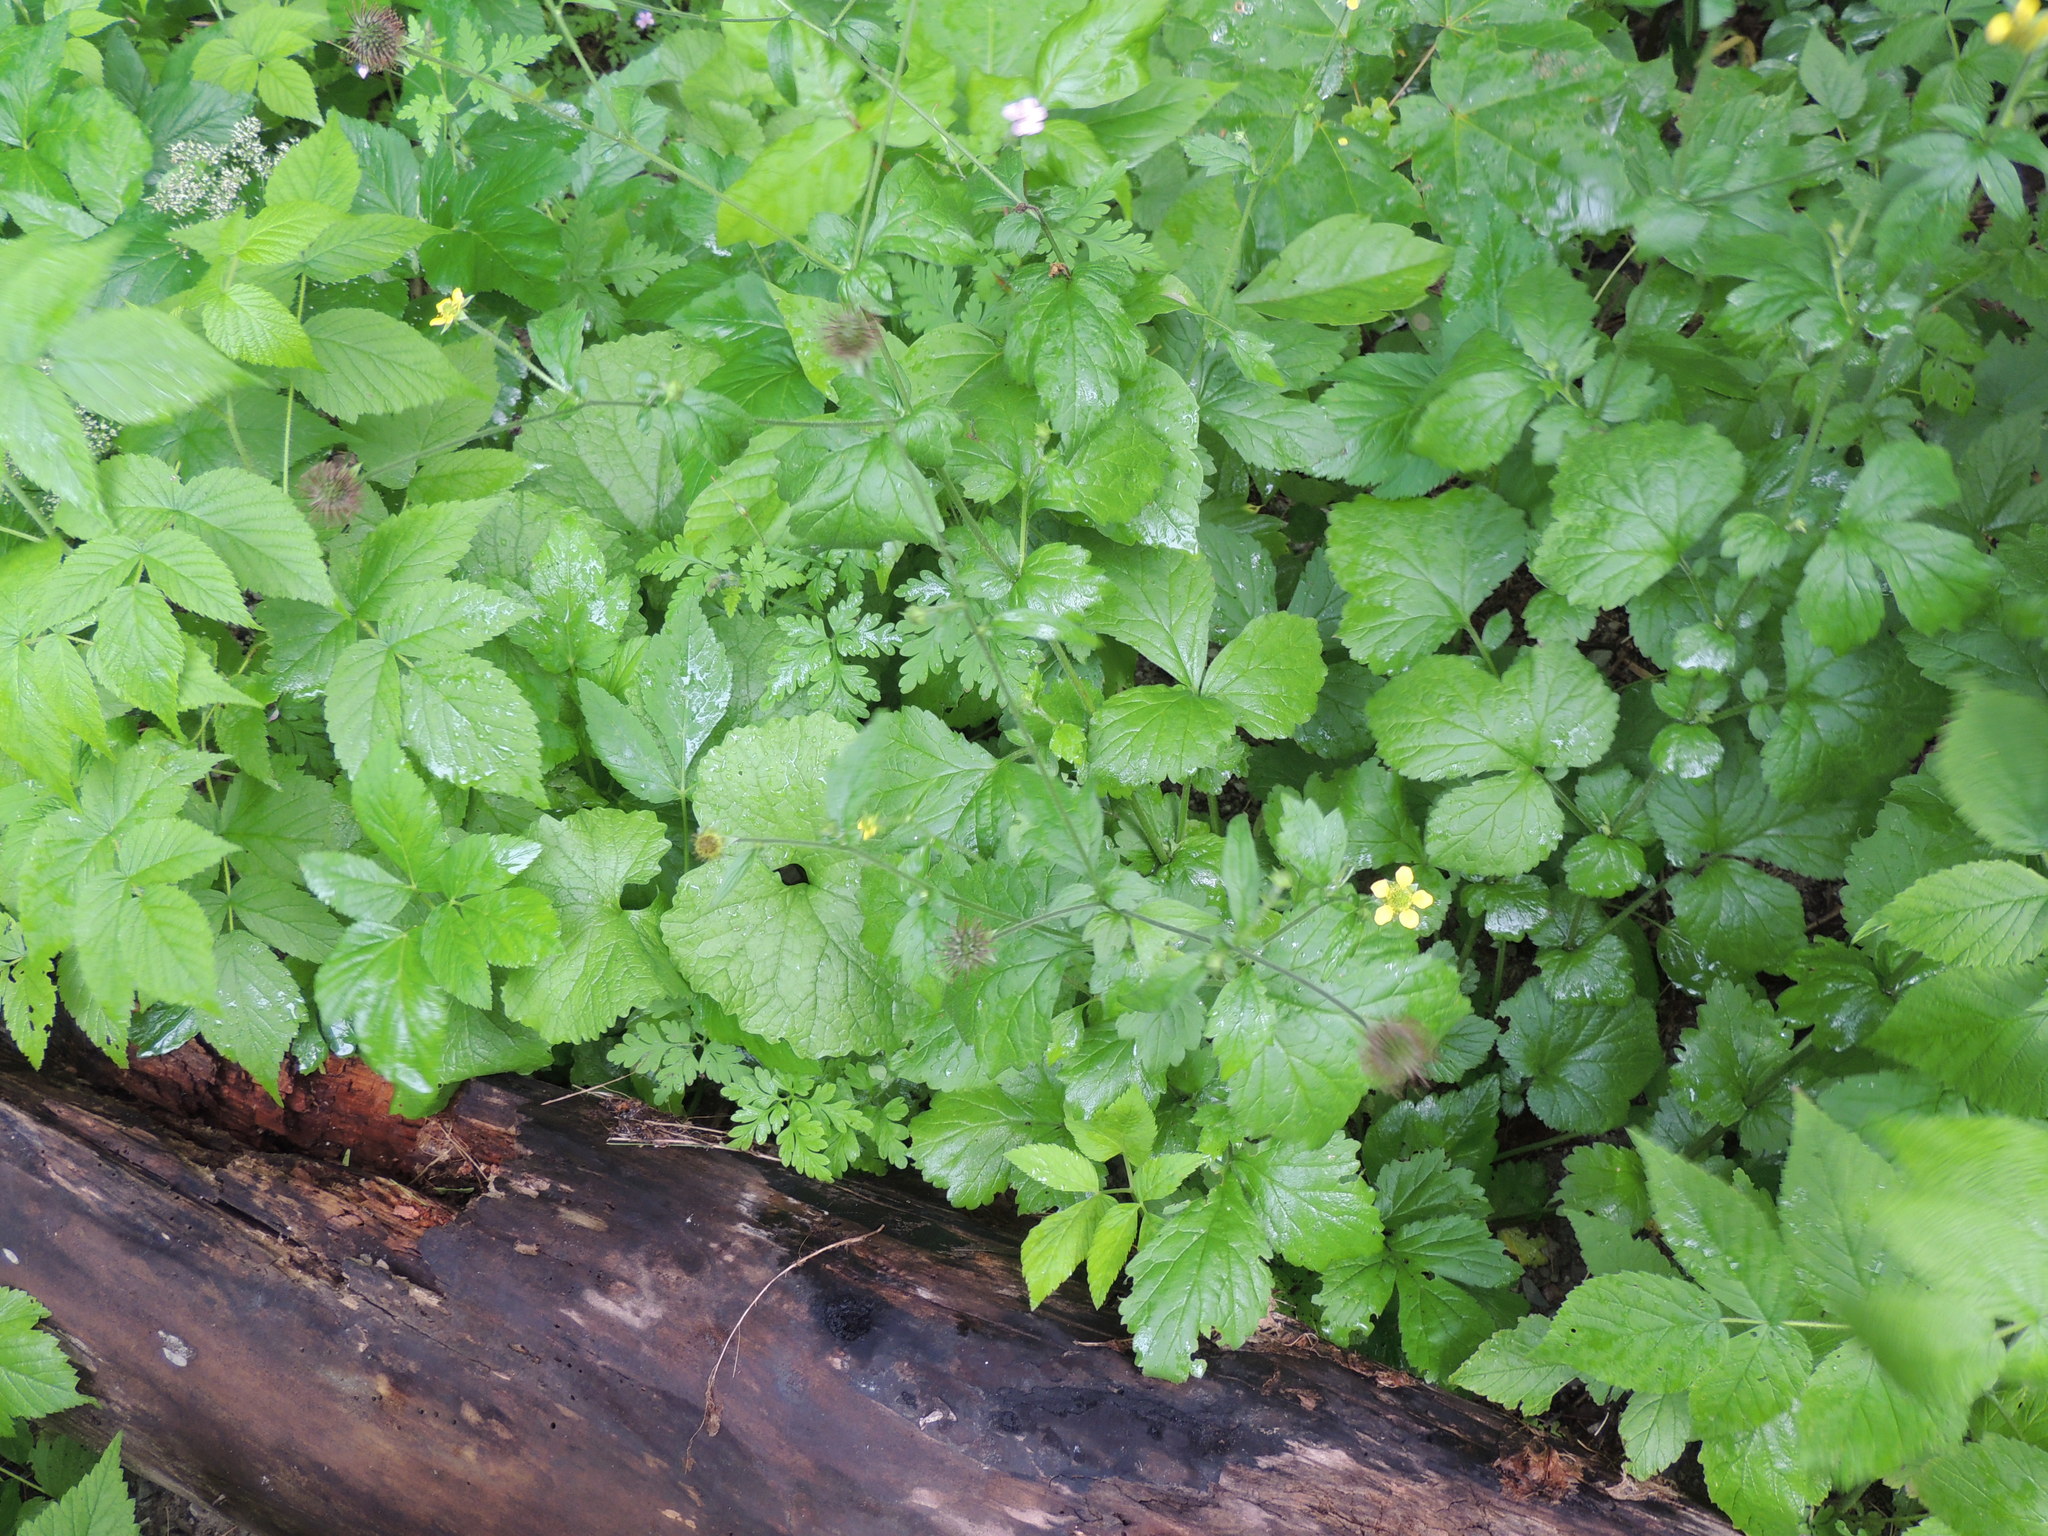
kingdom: Plantae
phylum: Tracheophyta
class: Magnoliopsida
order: Rosales
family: Rosaceae
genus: Geum
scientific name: Geum urbanum
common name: Wood avens
